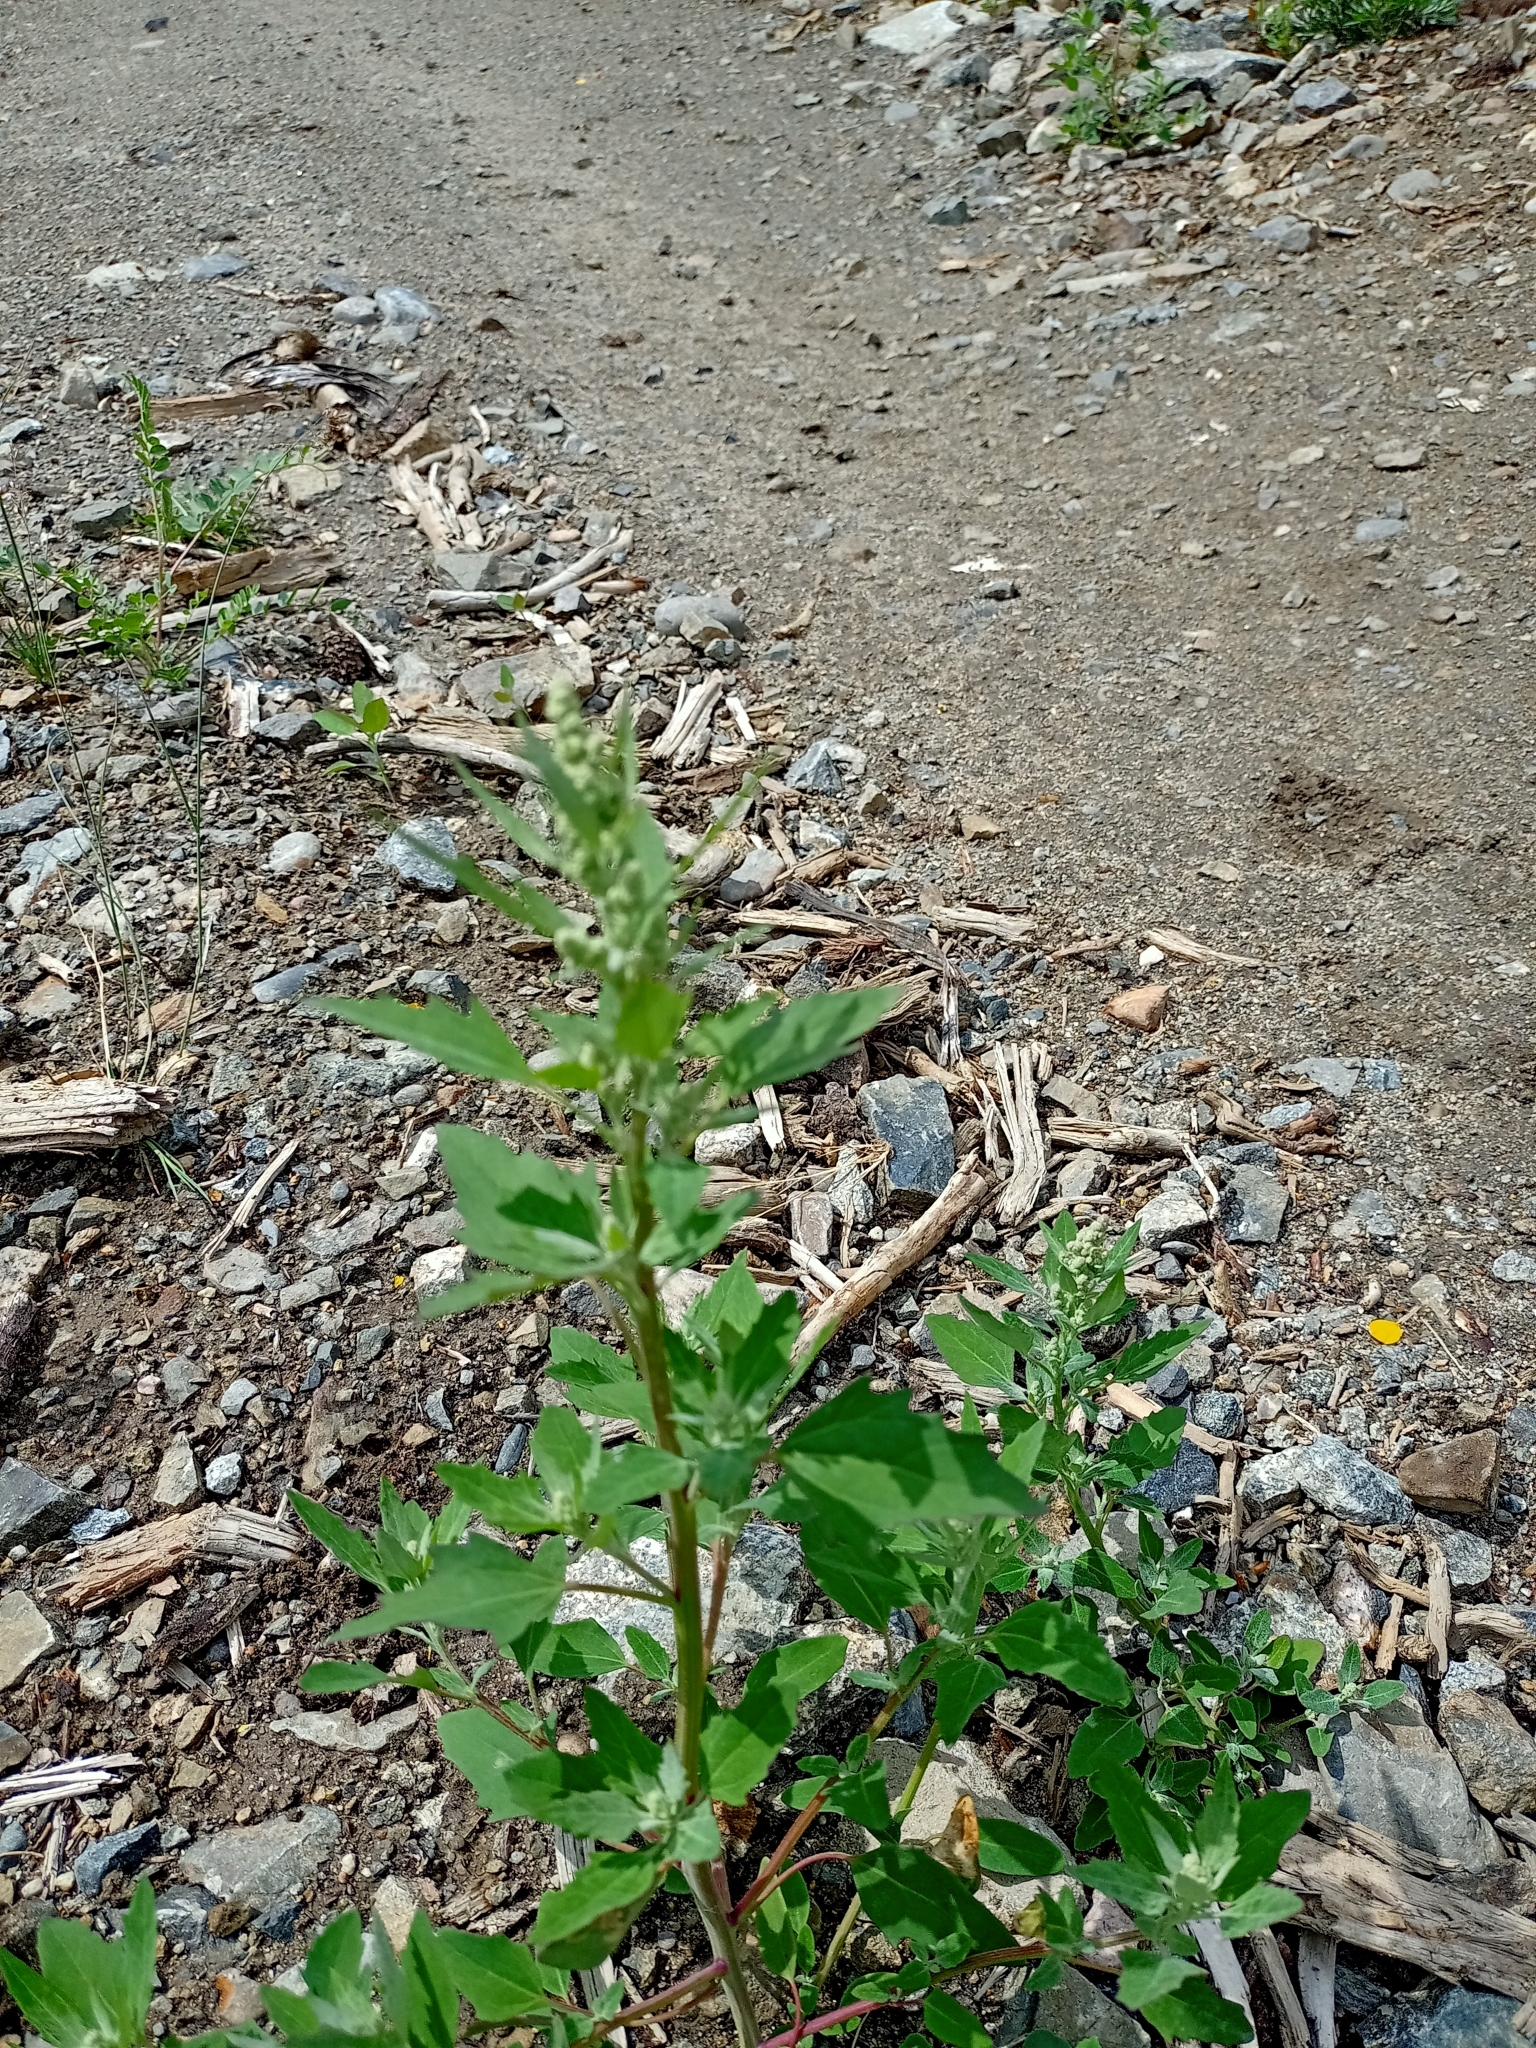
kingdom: Plantae
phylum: Tracheophyta
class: Magnoliopsida
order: Caryophyllales
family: Amaranthaceae
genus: Chenopodium
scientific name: Chenopodium album
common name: Fat-hen
